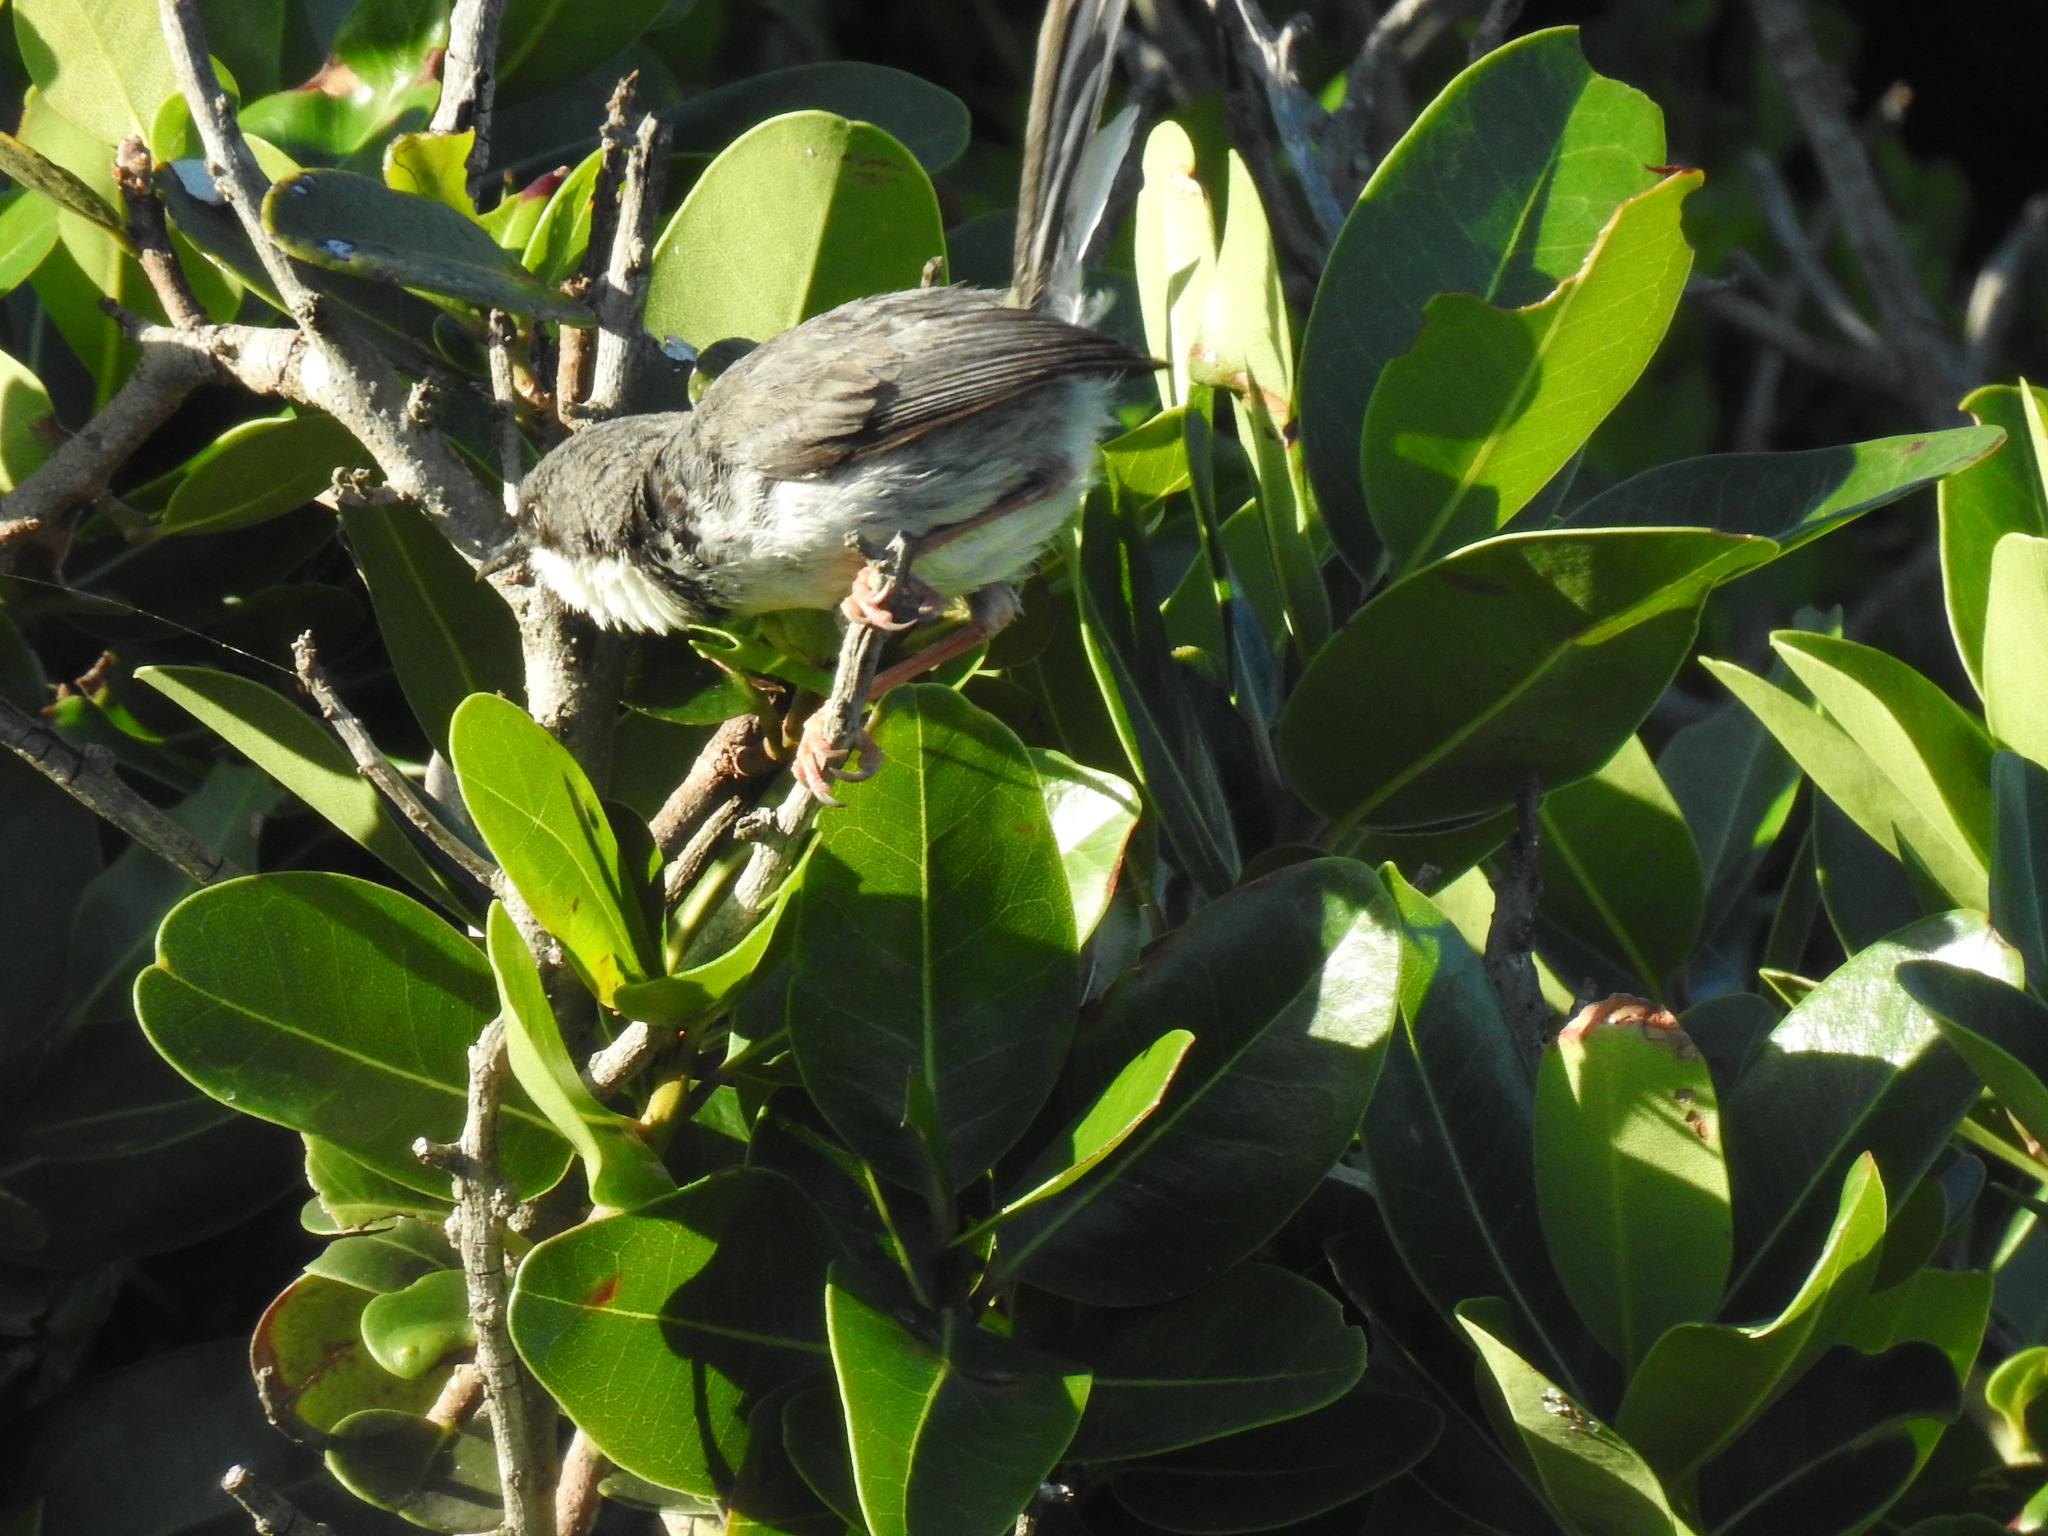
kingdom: Animalia
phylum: Chordata
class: Aves
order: Passeriformes
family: Cisticolidae
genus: Apalis
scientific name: Apalis thoracica
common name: Bar-throated apalis
